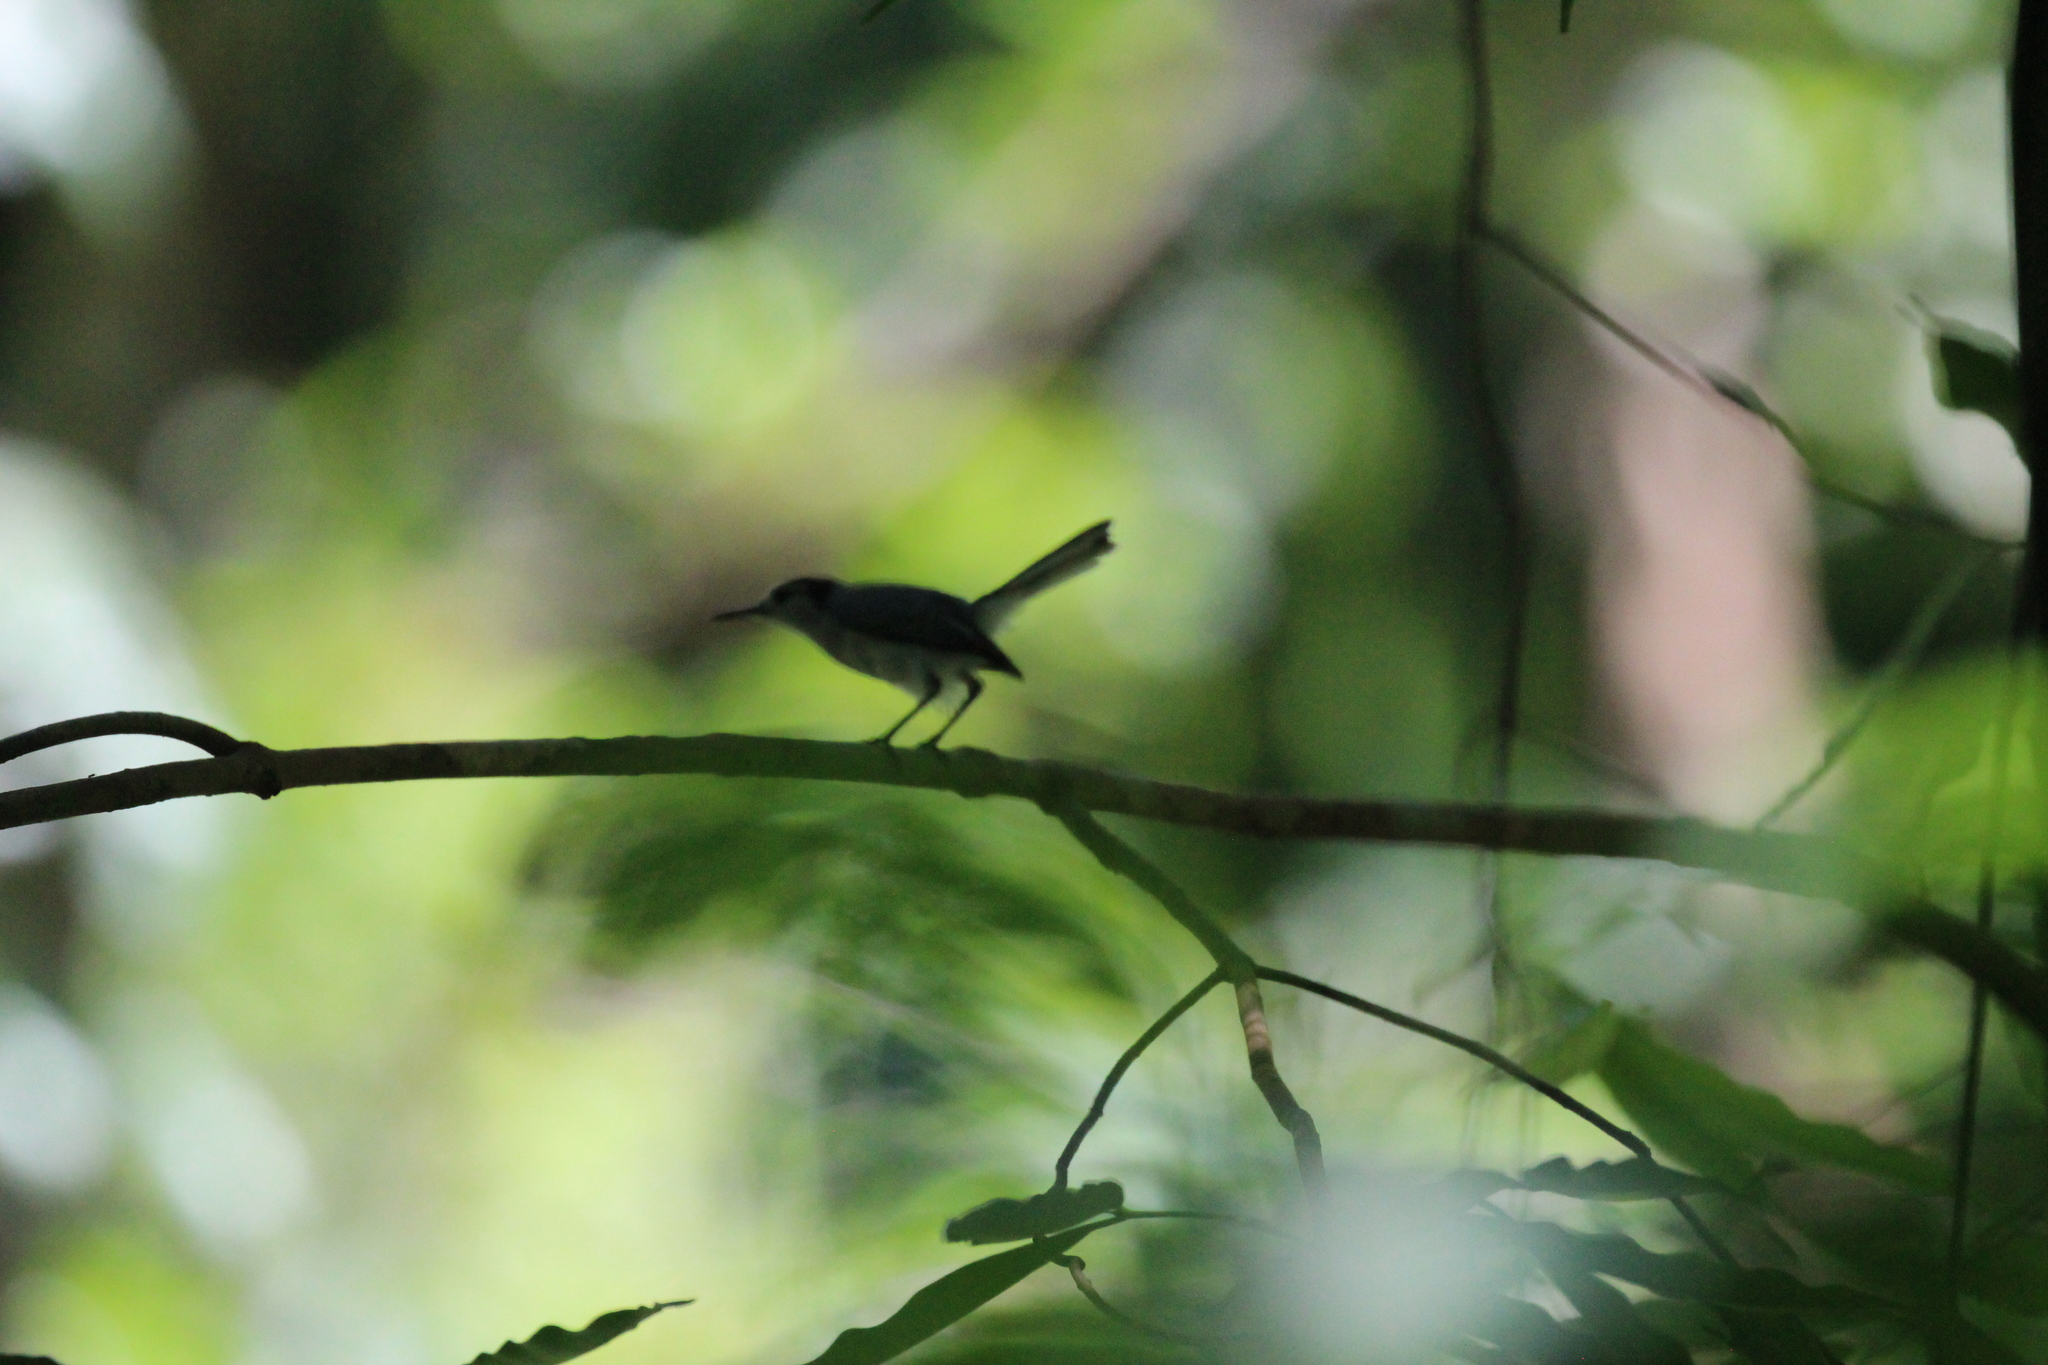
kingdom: Animalia
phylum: Chordata
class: Aves
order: Passeriformes
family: Polioptilidae
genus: Polioptila
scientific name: Polioptila plumbea
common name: Tropical gnatcatcher
